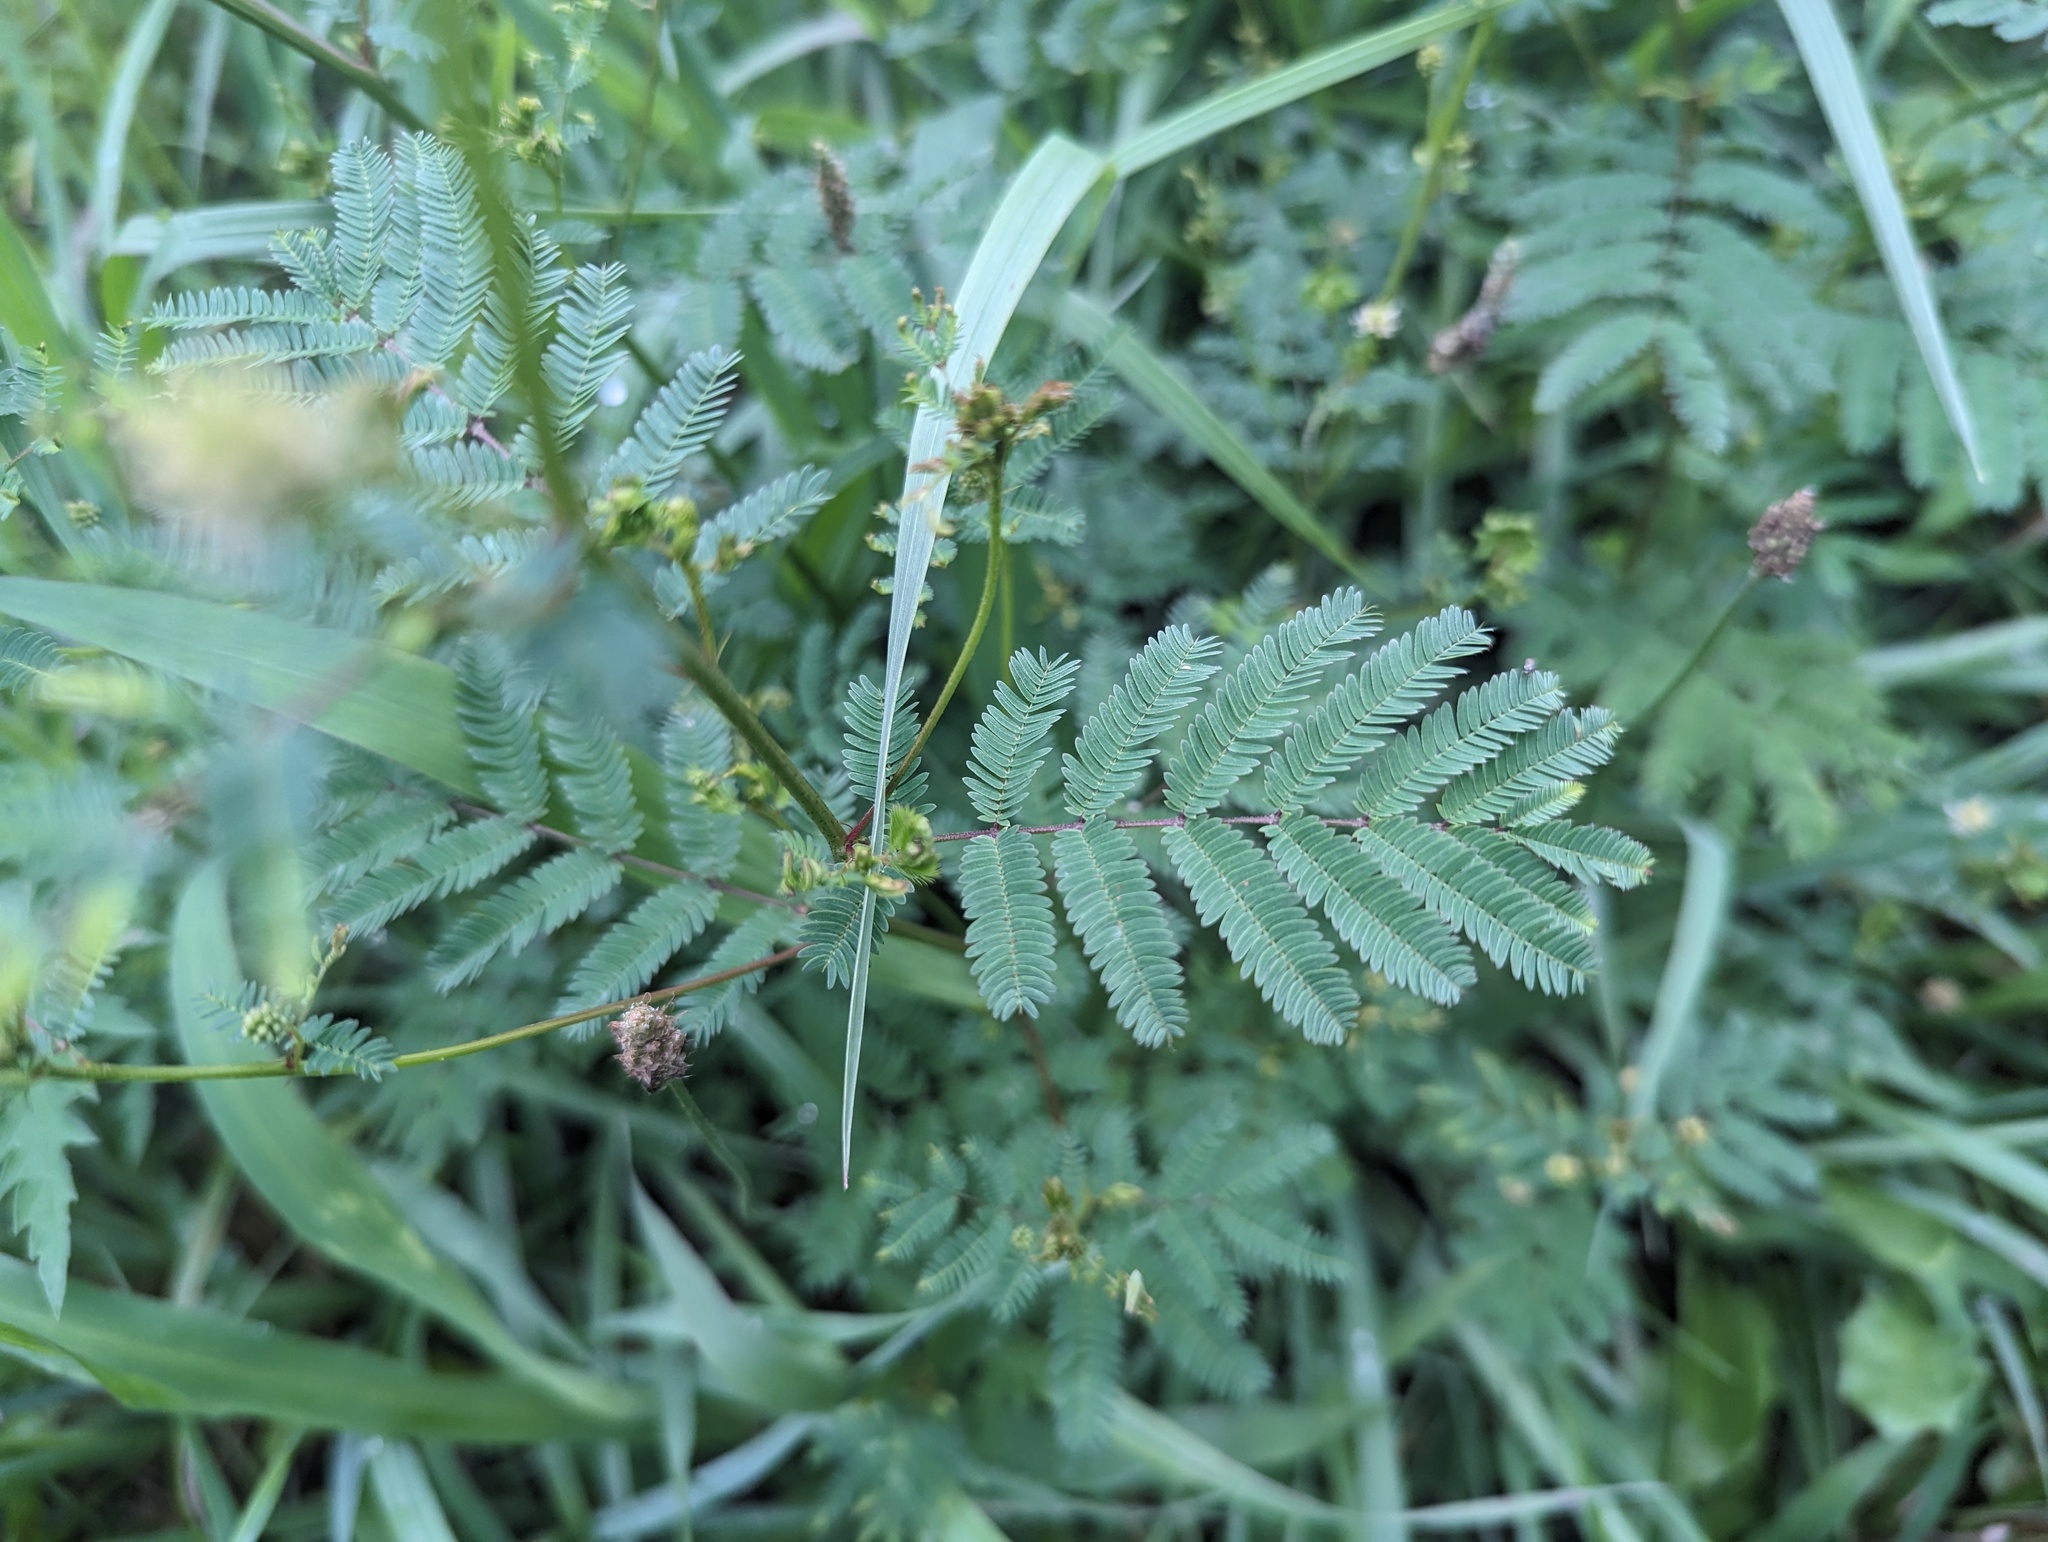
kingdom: Plantae
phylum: Tracheophyta
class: Magnoliopsida
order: Fabales
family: Fabaceae
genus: Desmanthus
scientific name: Desmanthus illinoensis
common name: Illinois bundle-flower
